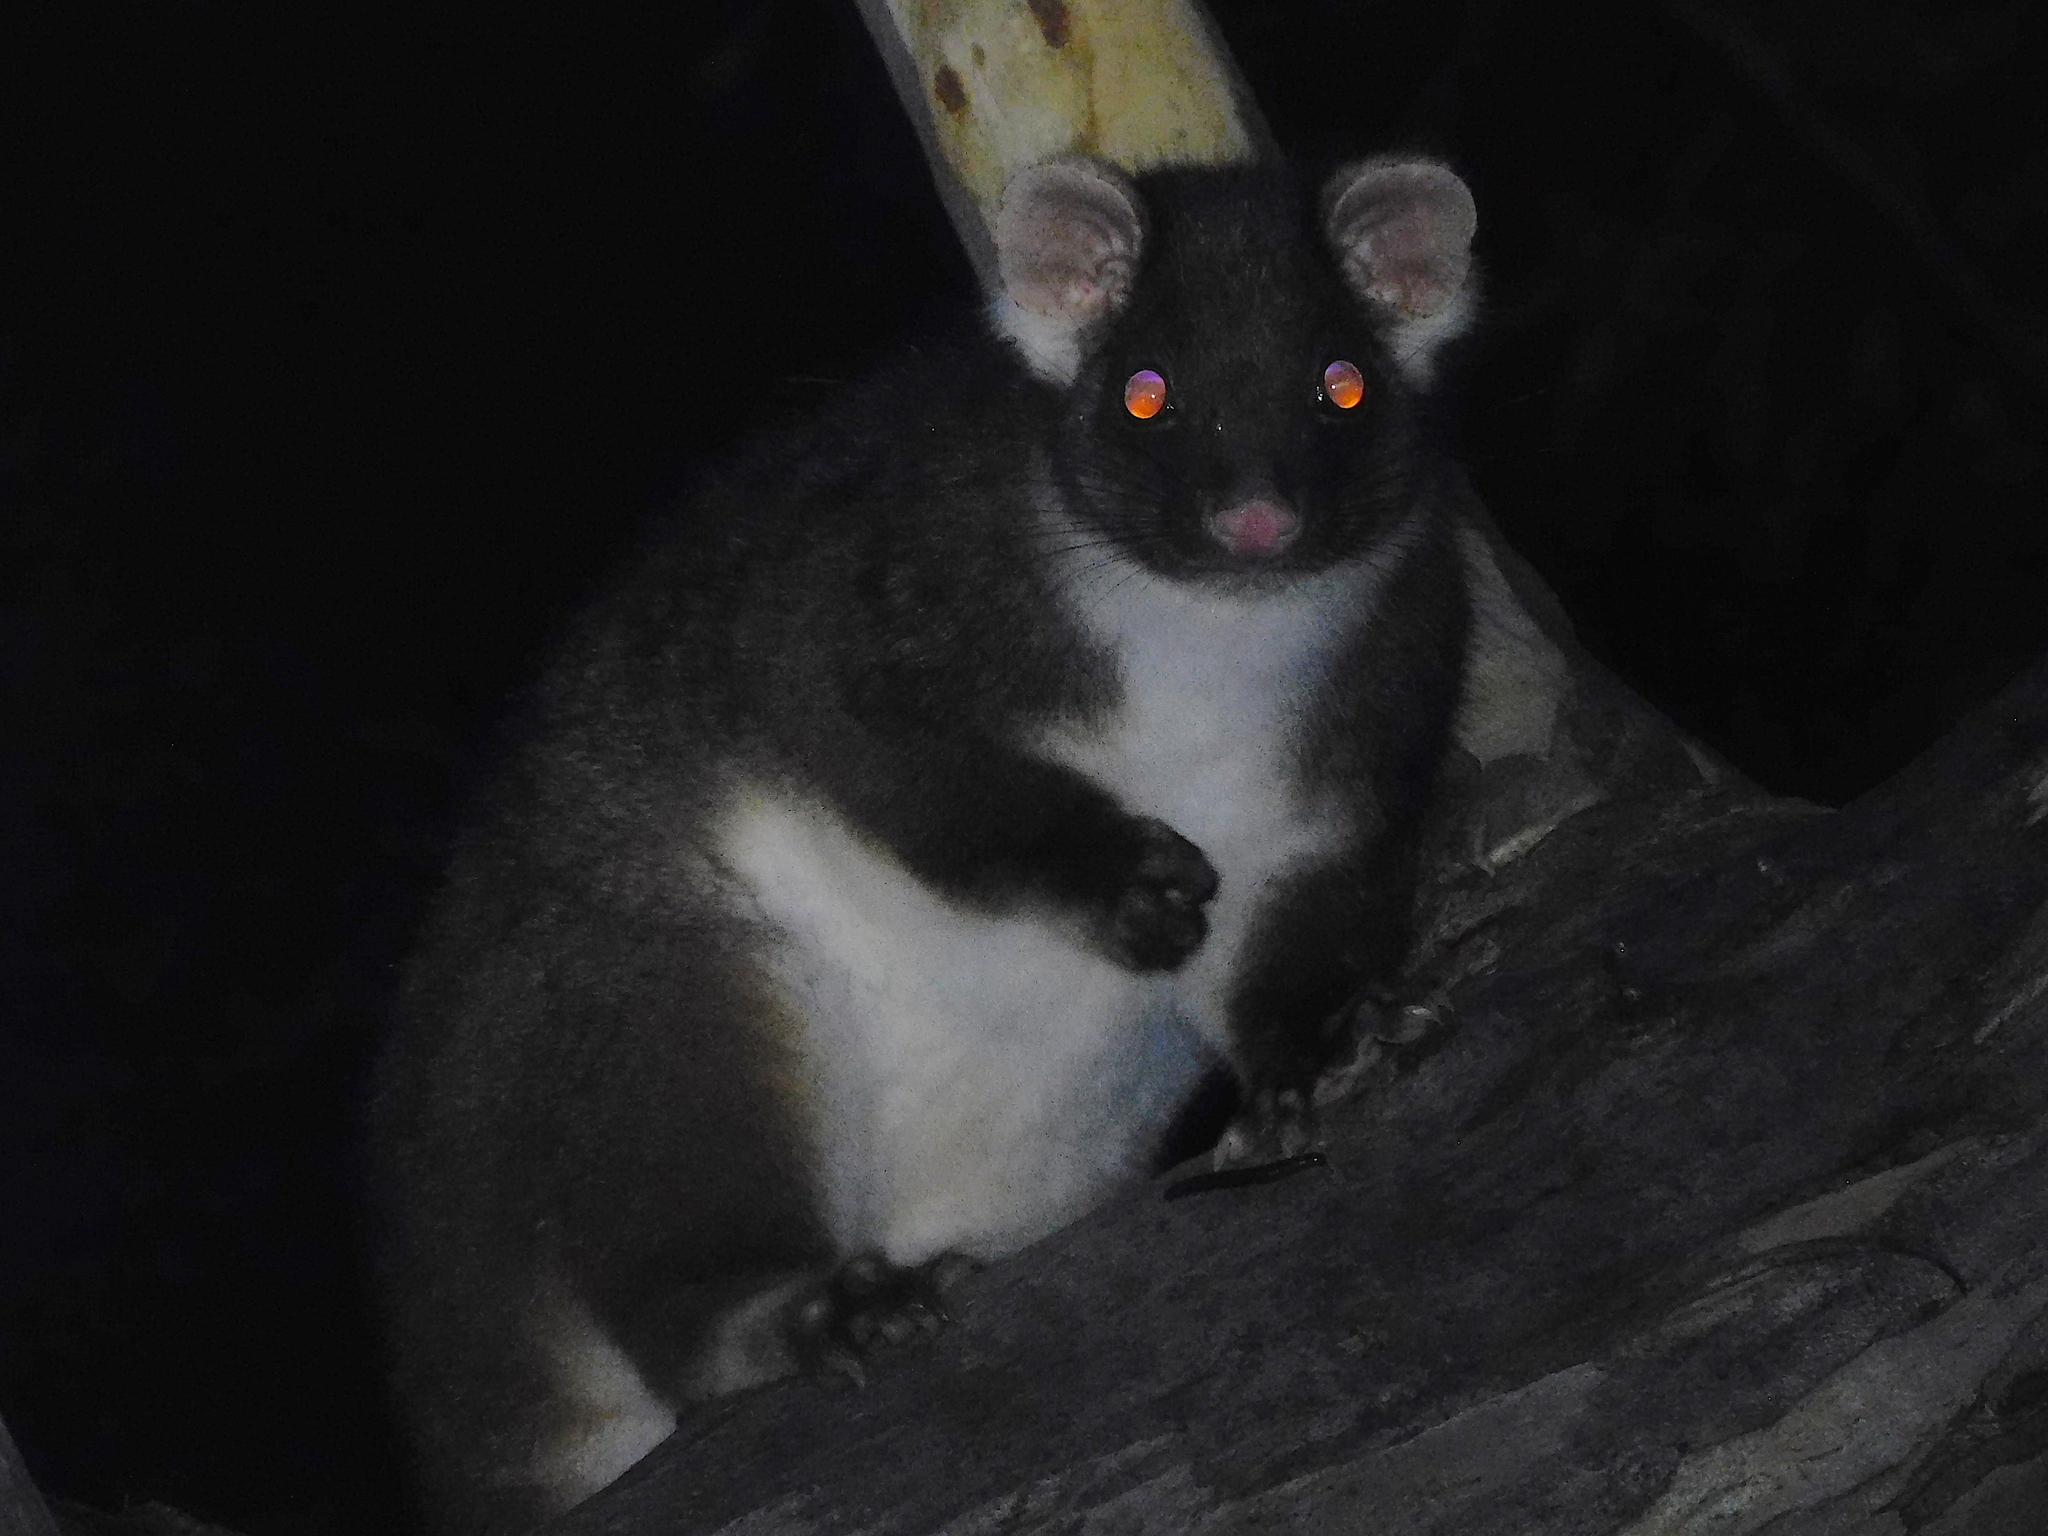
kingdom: Animalia
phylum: Chordata
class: Mammalia
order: Diprotodontia
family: Pseudocheiridae
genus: Pseudocheirus
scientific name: Pseudocheirus peregrinus
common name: Common ringtail possum
